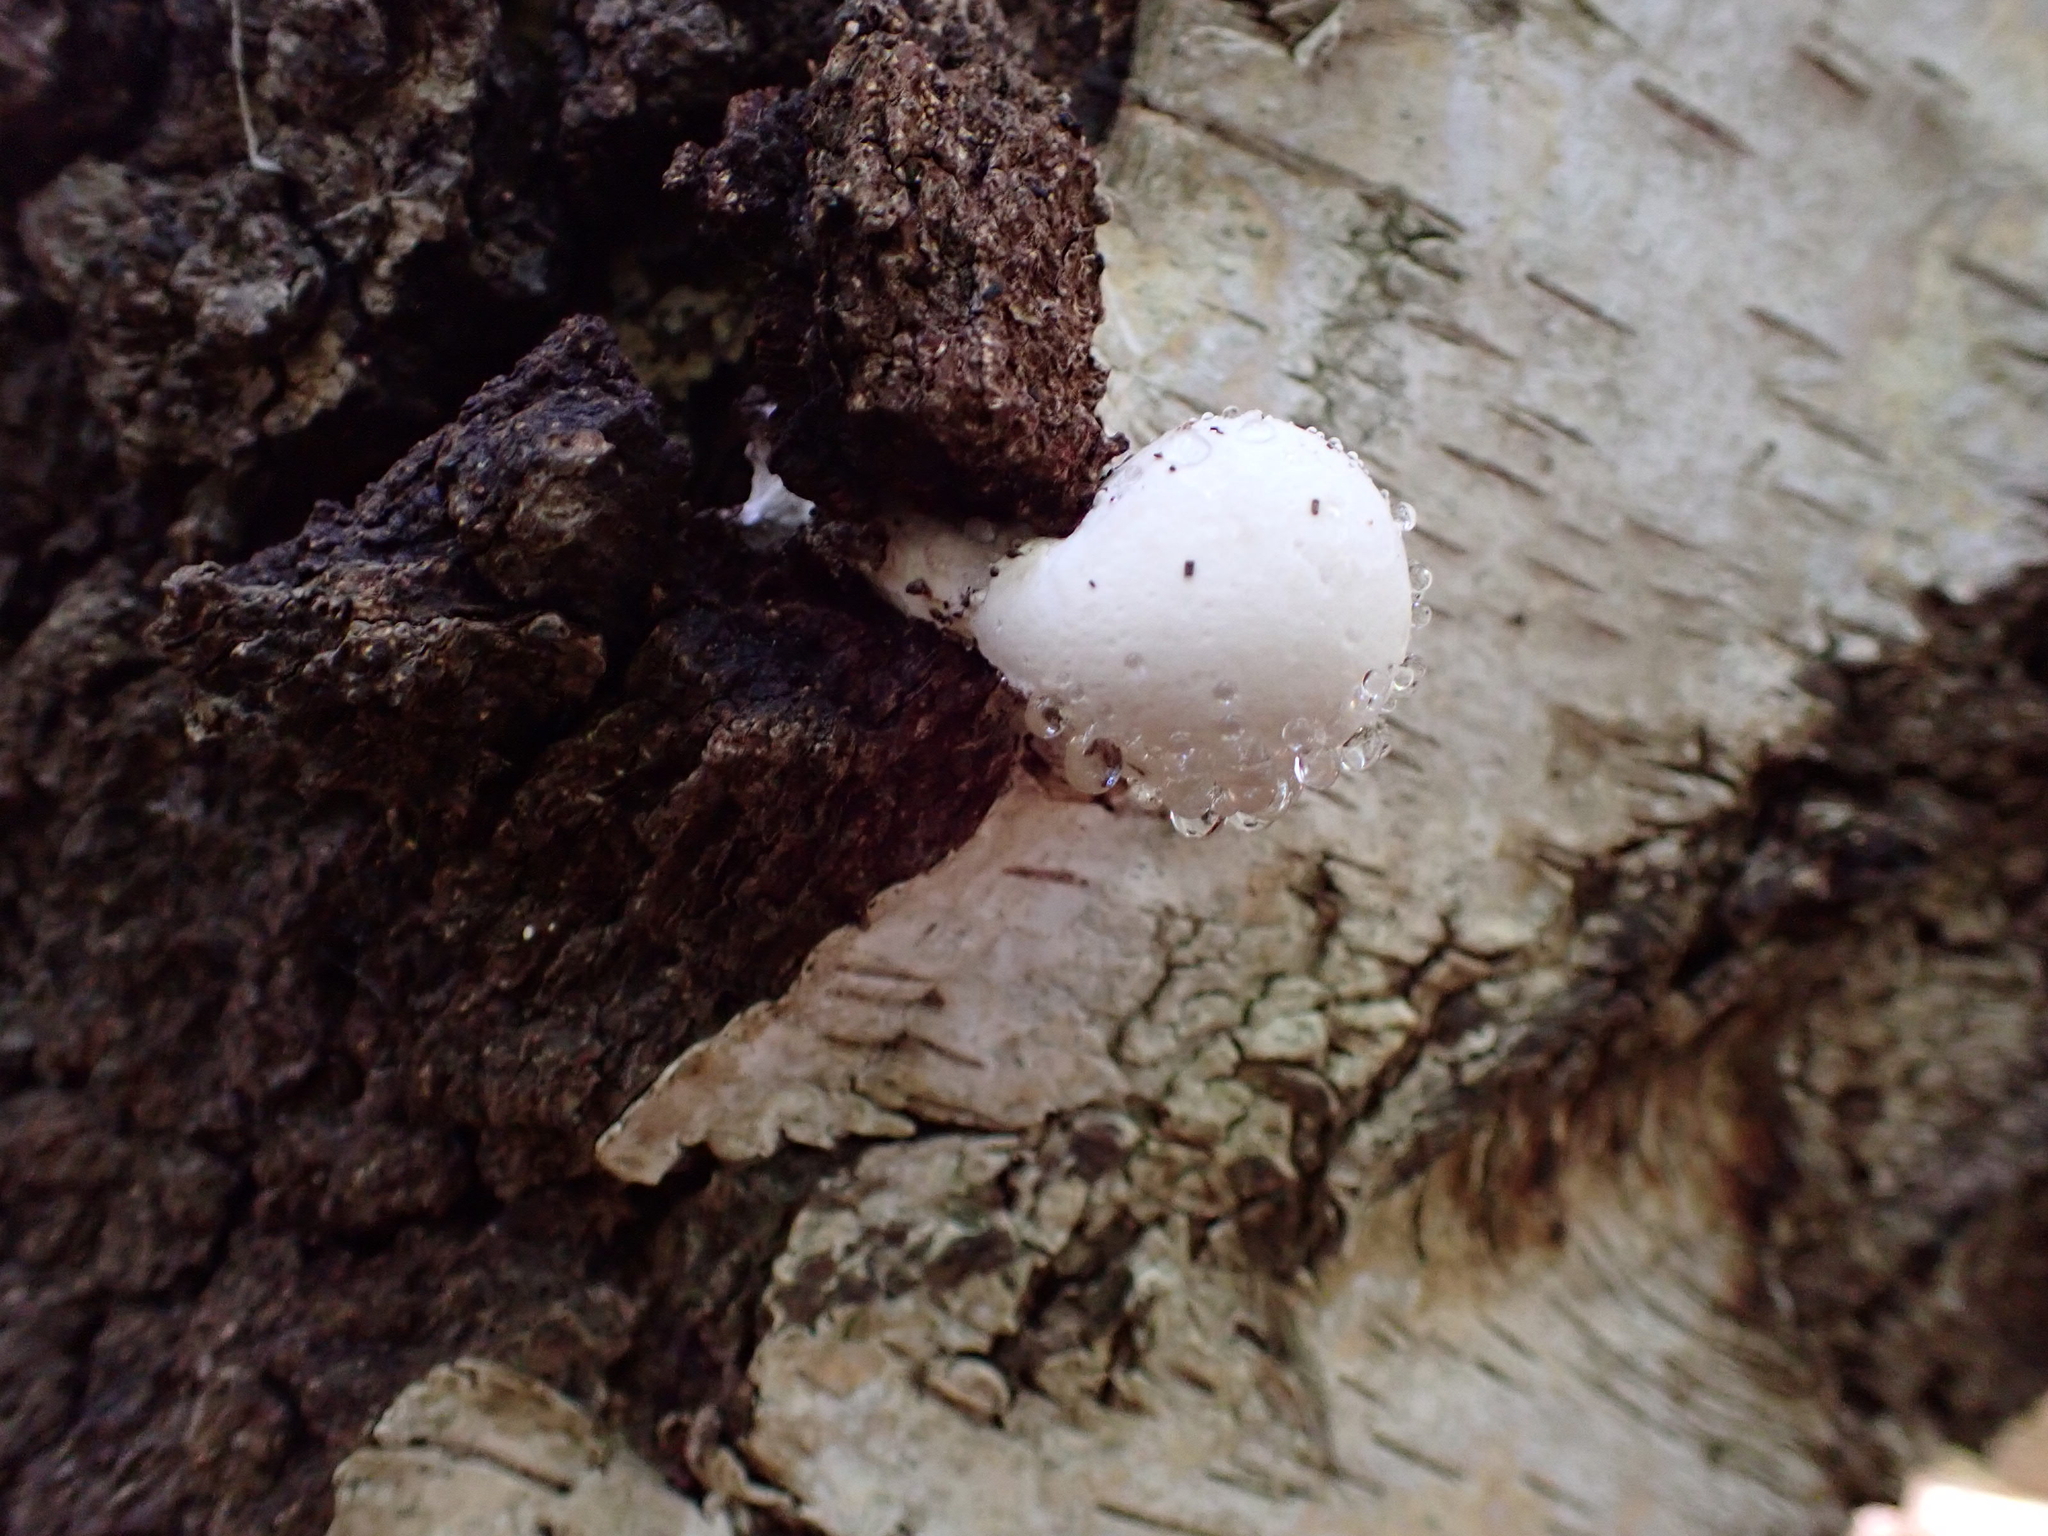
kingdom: Fungi
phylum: Basidiomycota
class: Agaricomycetes
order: Polyporales
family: Fomitopsidaceae
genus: Fomitopsis
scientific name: Fomitopsis betulina
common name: Birch polypore
